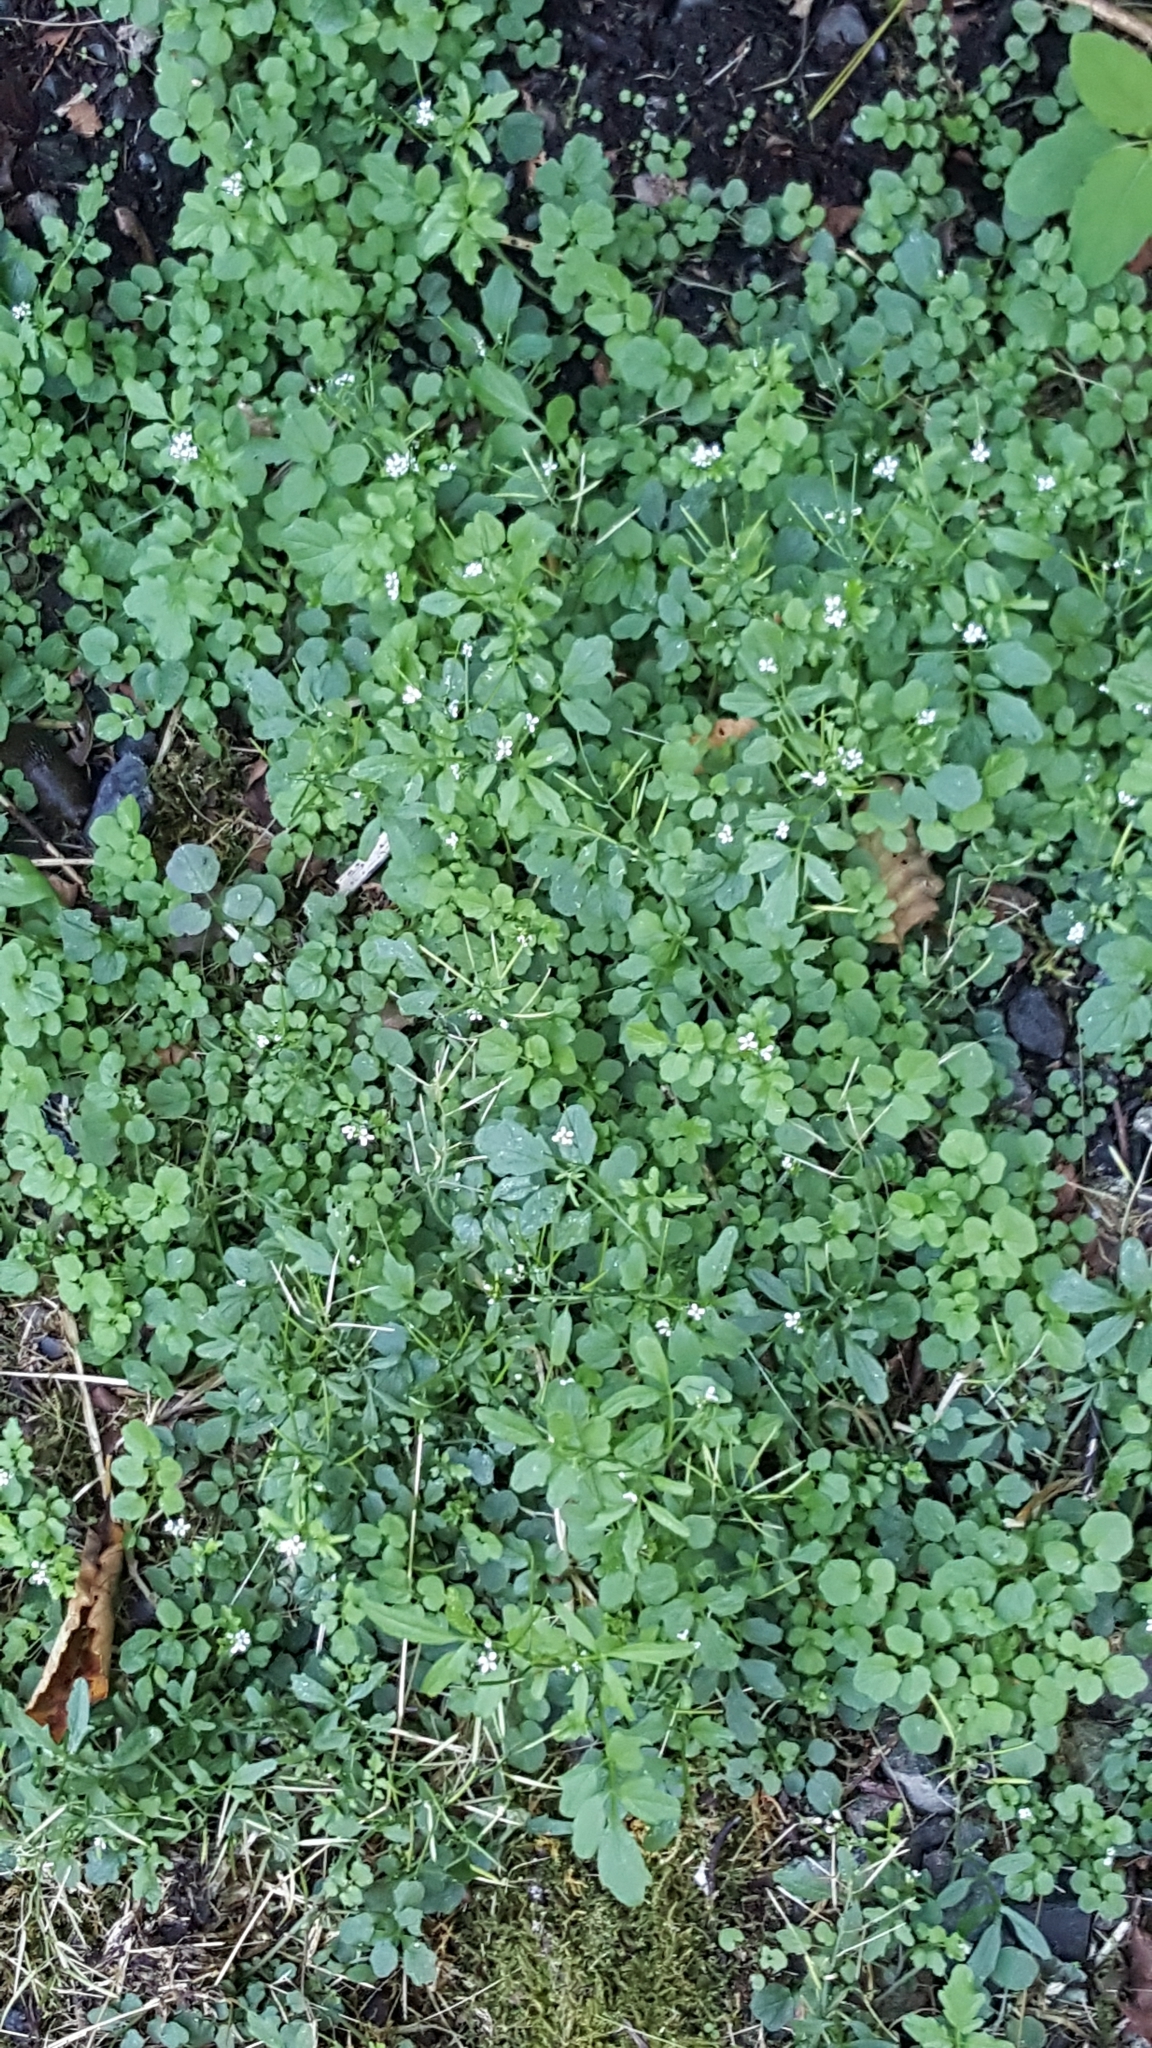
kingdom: Plantae
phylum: Tracheophyta
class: Magnoliopsida
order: Brassicales
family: Brassicaceae
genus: Cardamine
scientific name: Cardamine flexuosa
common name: Woodland bittercress
